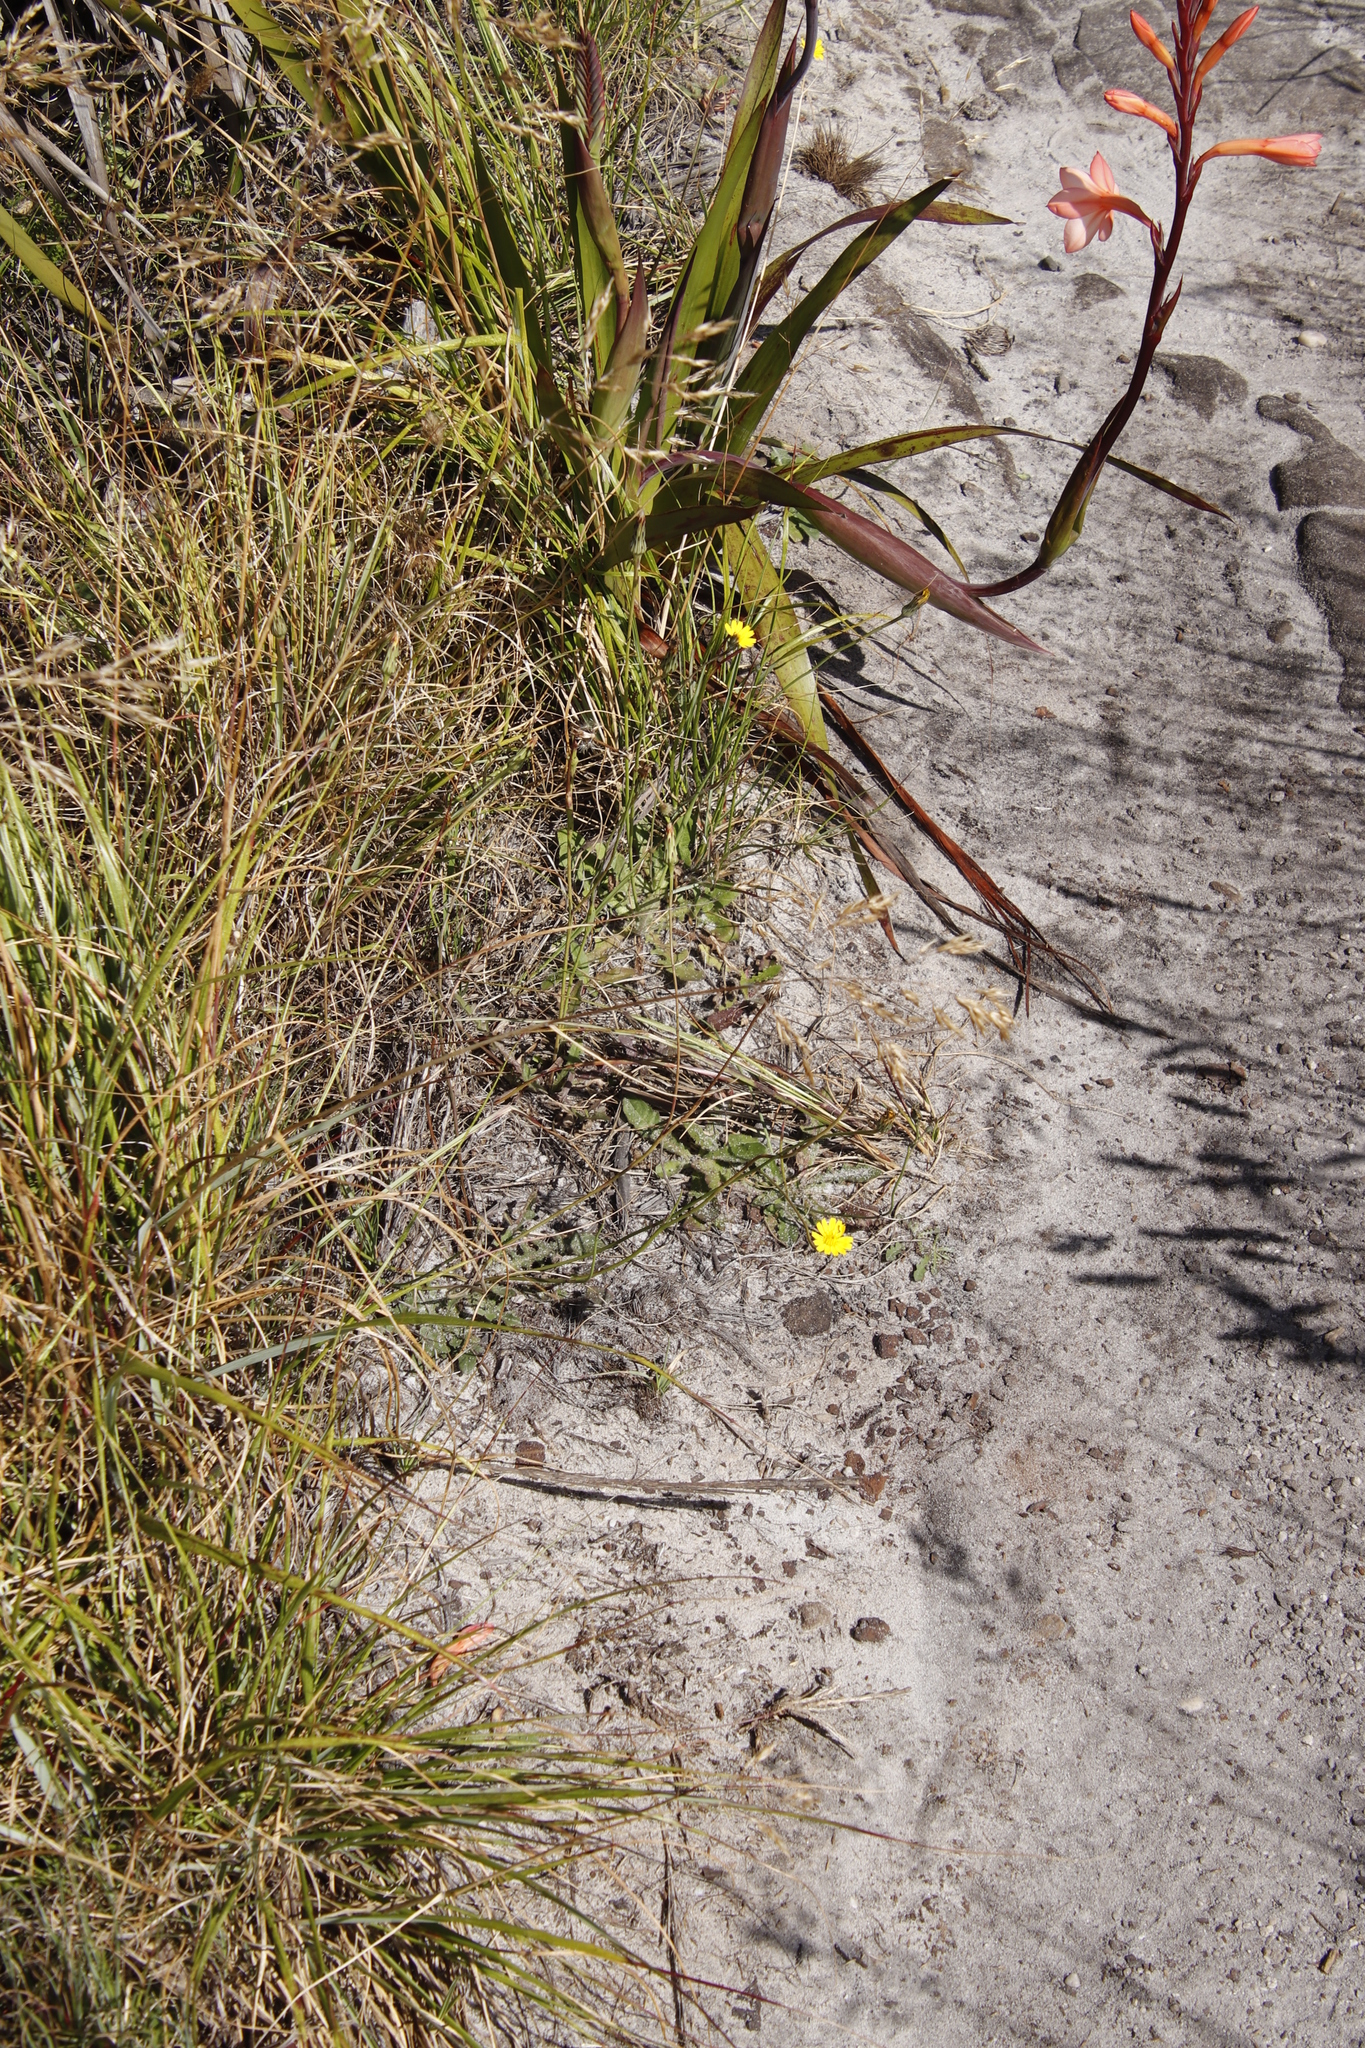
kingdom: Plantae
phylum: Tracheophyta
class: Magnoliopsida
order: Asterales
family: Asteraceae
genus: Hypochaeris
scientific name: Hypochaeris radicata
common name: Flatweed
